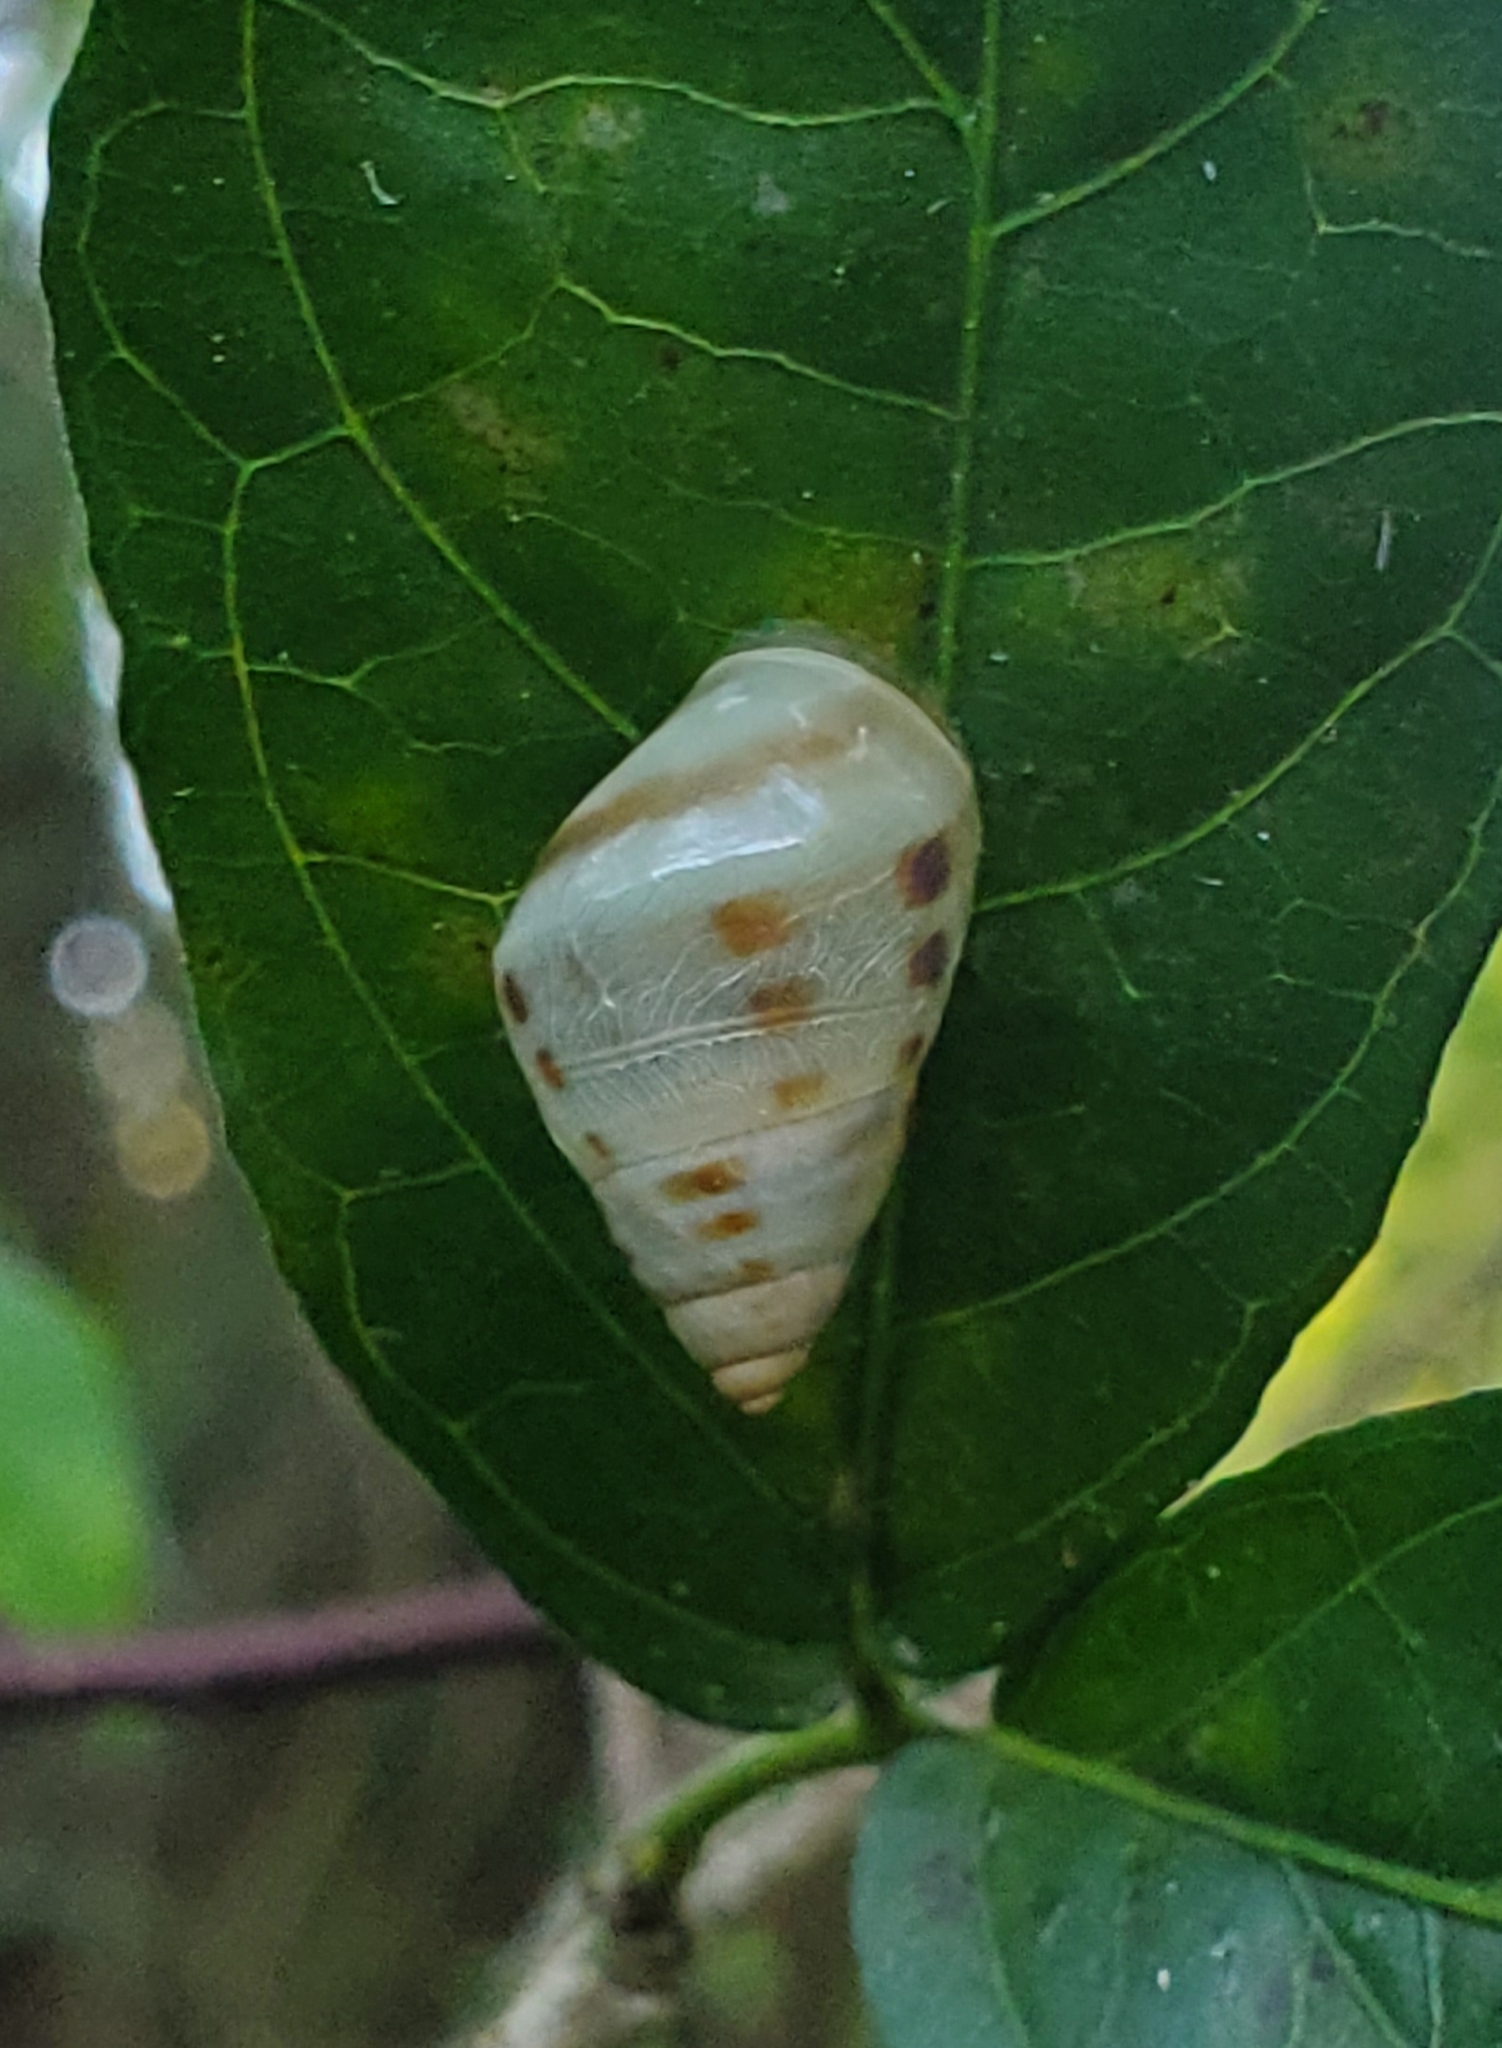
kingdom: Animalia
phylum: Mollusca
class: Gastropoda
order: Stylommatophora
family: Bulimulidae
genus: Drymaeus
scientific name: Drymaeus dormani
